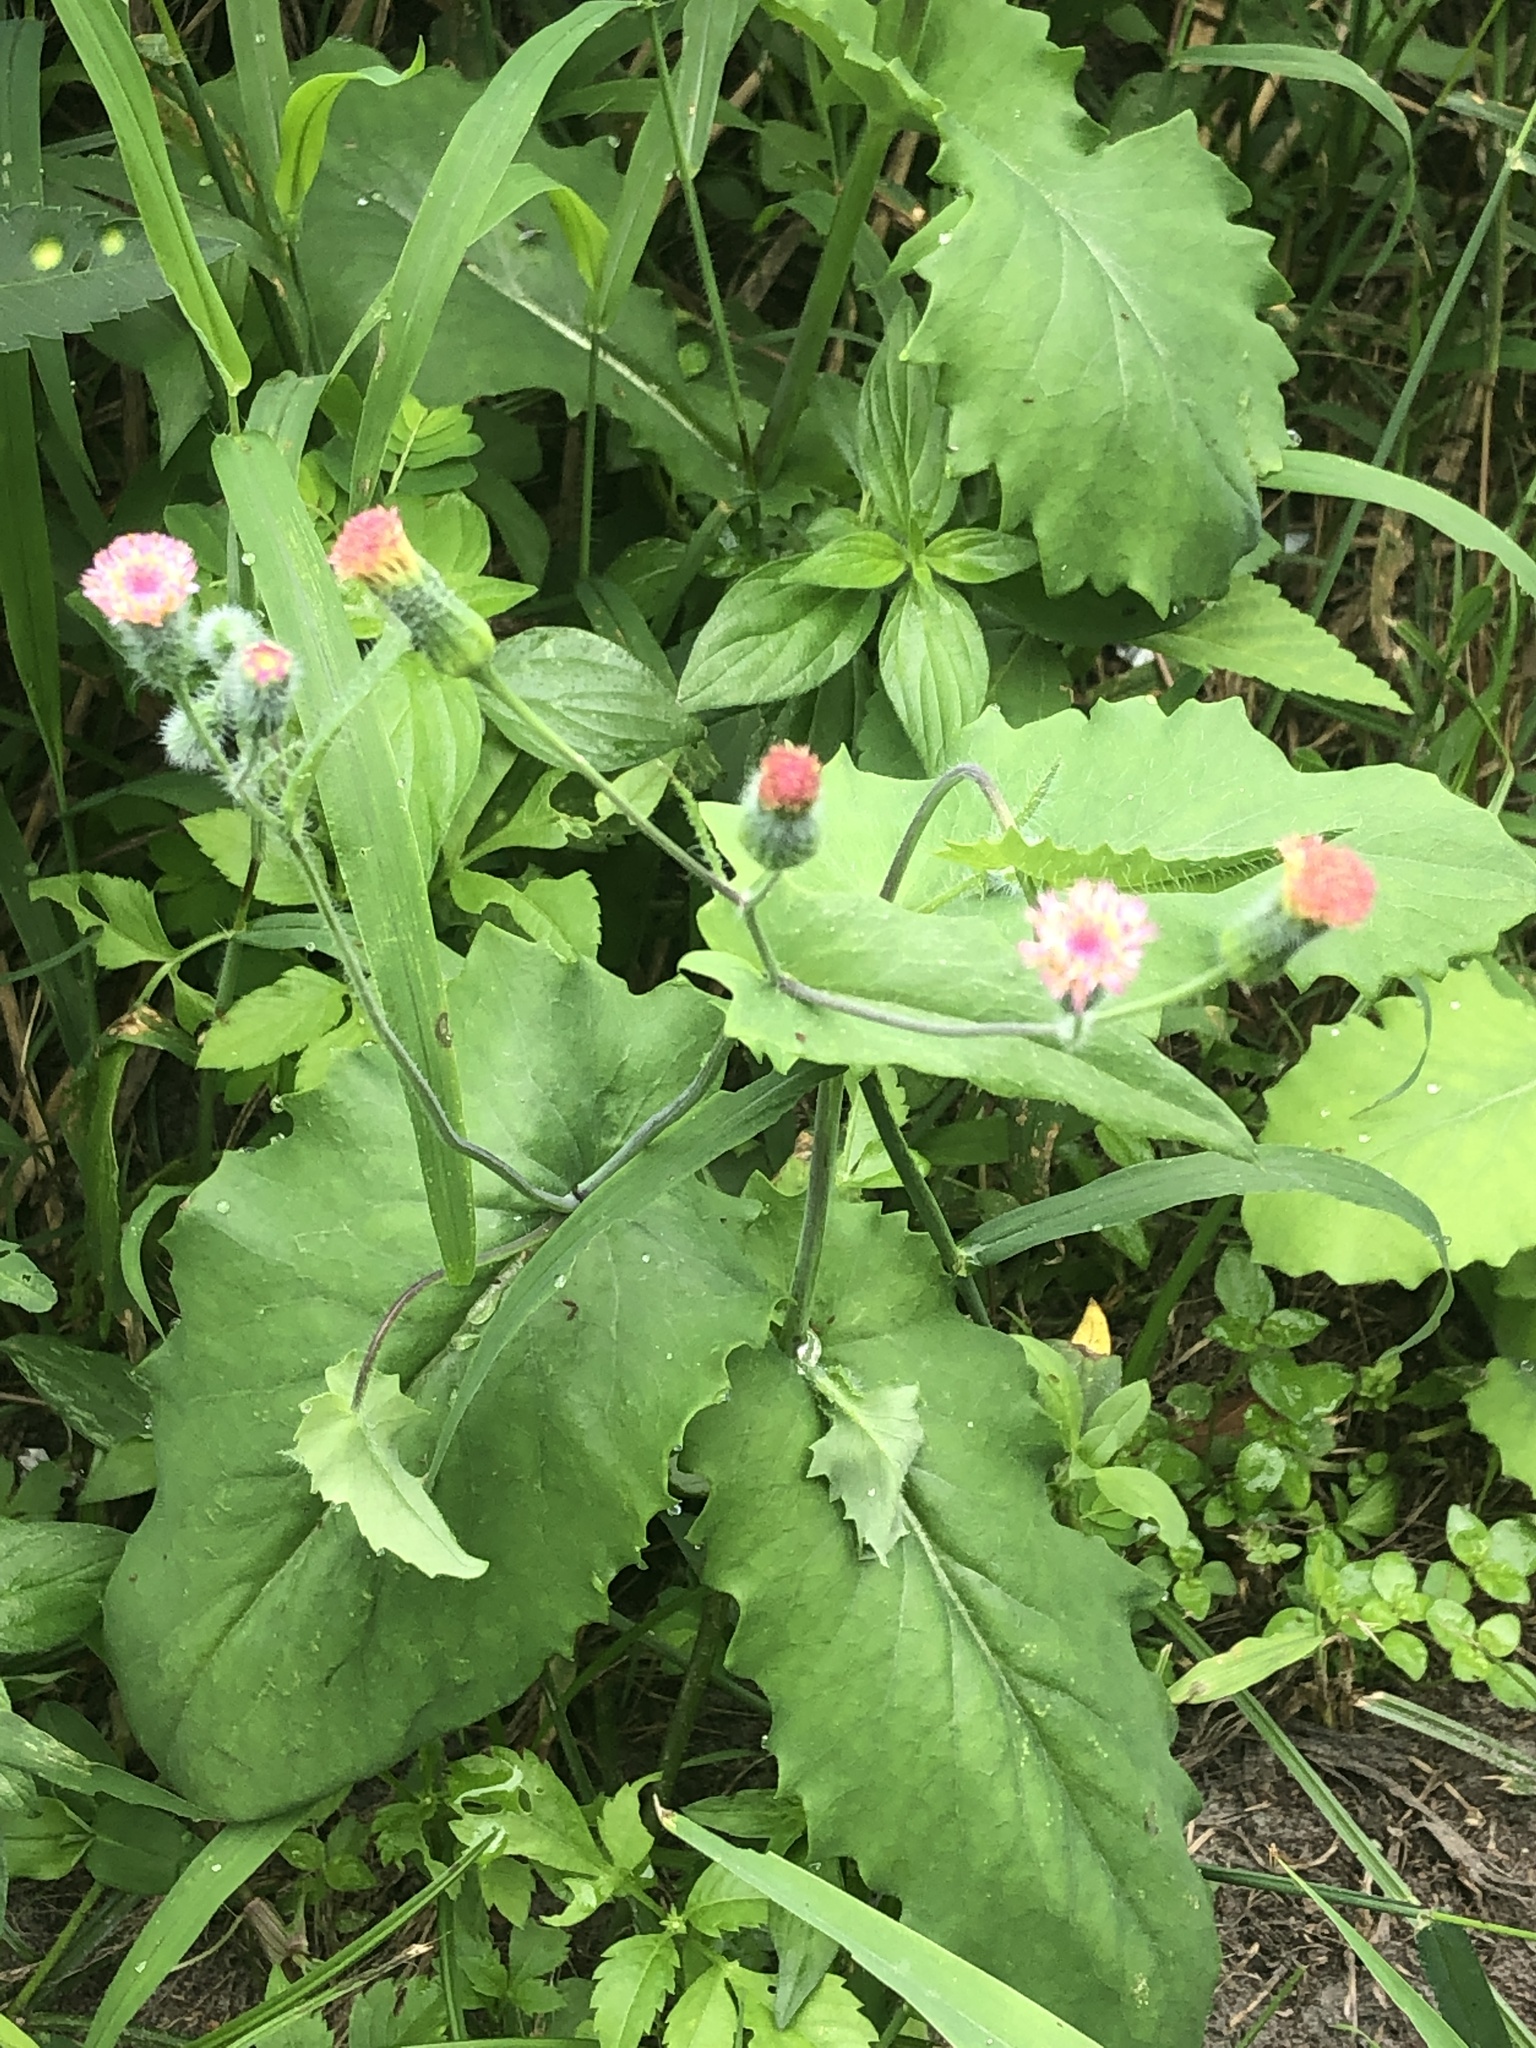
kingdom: Plantae
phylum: Tracheophyta
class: Magnoliopsida
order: Asterales
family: Asteraceae
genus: Emilia
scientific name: Emilia praetermissa
